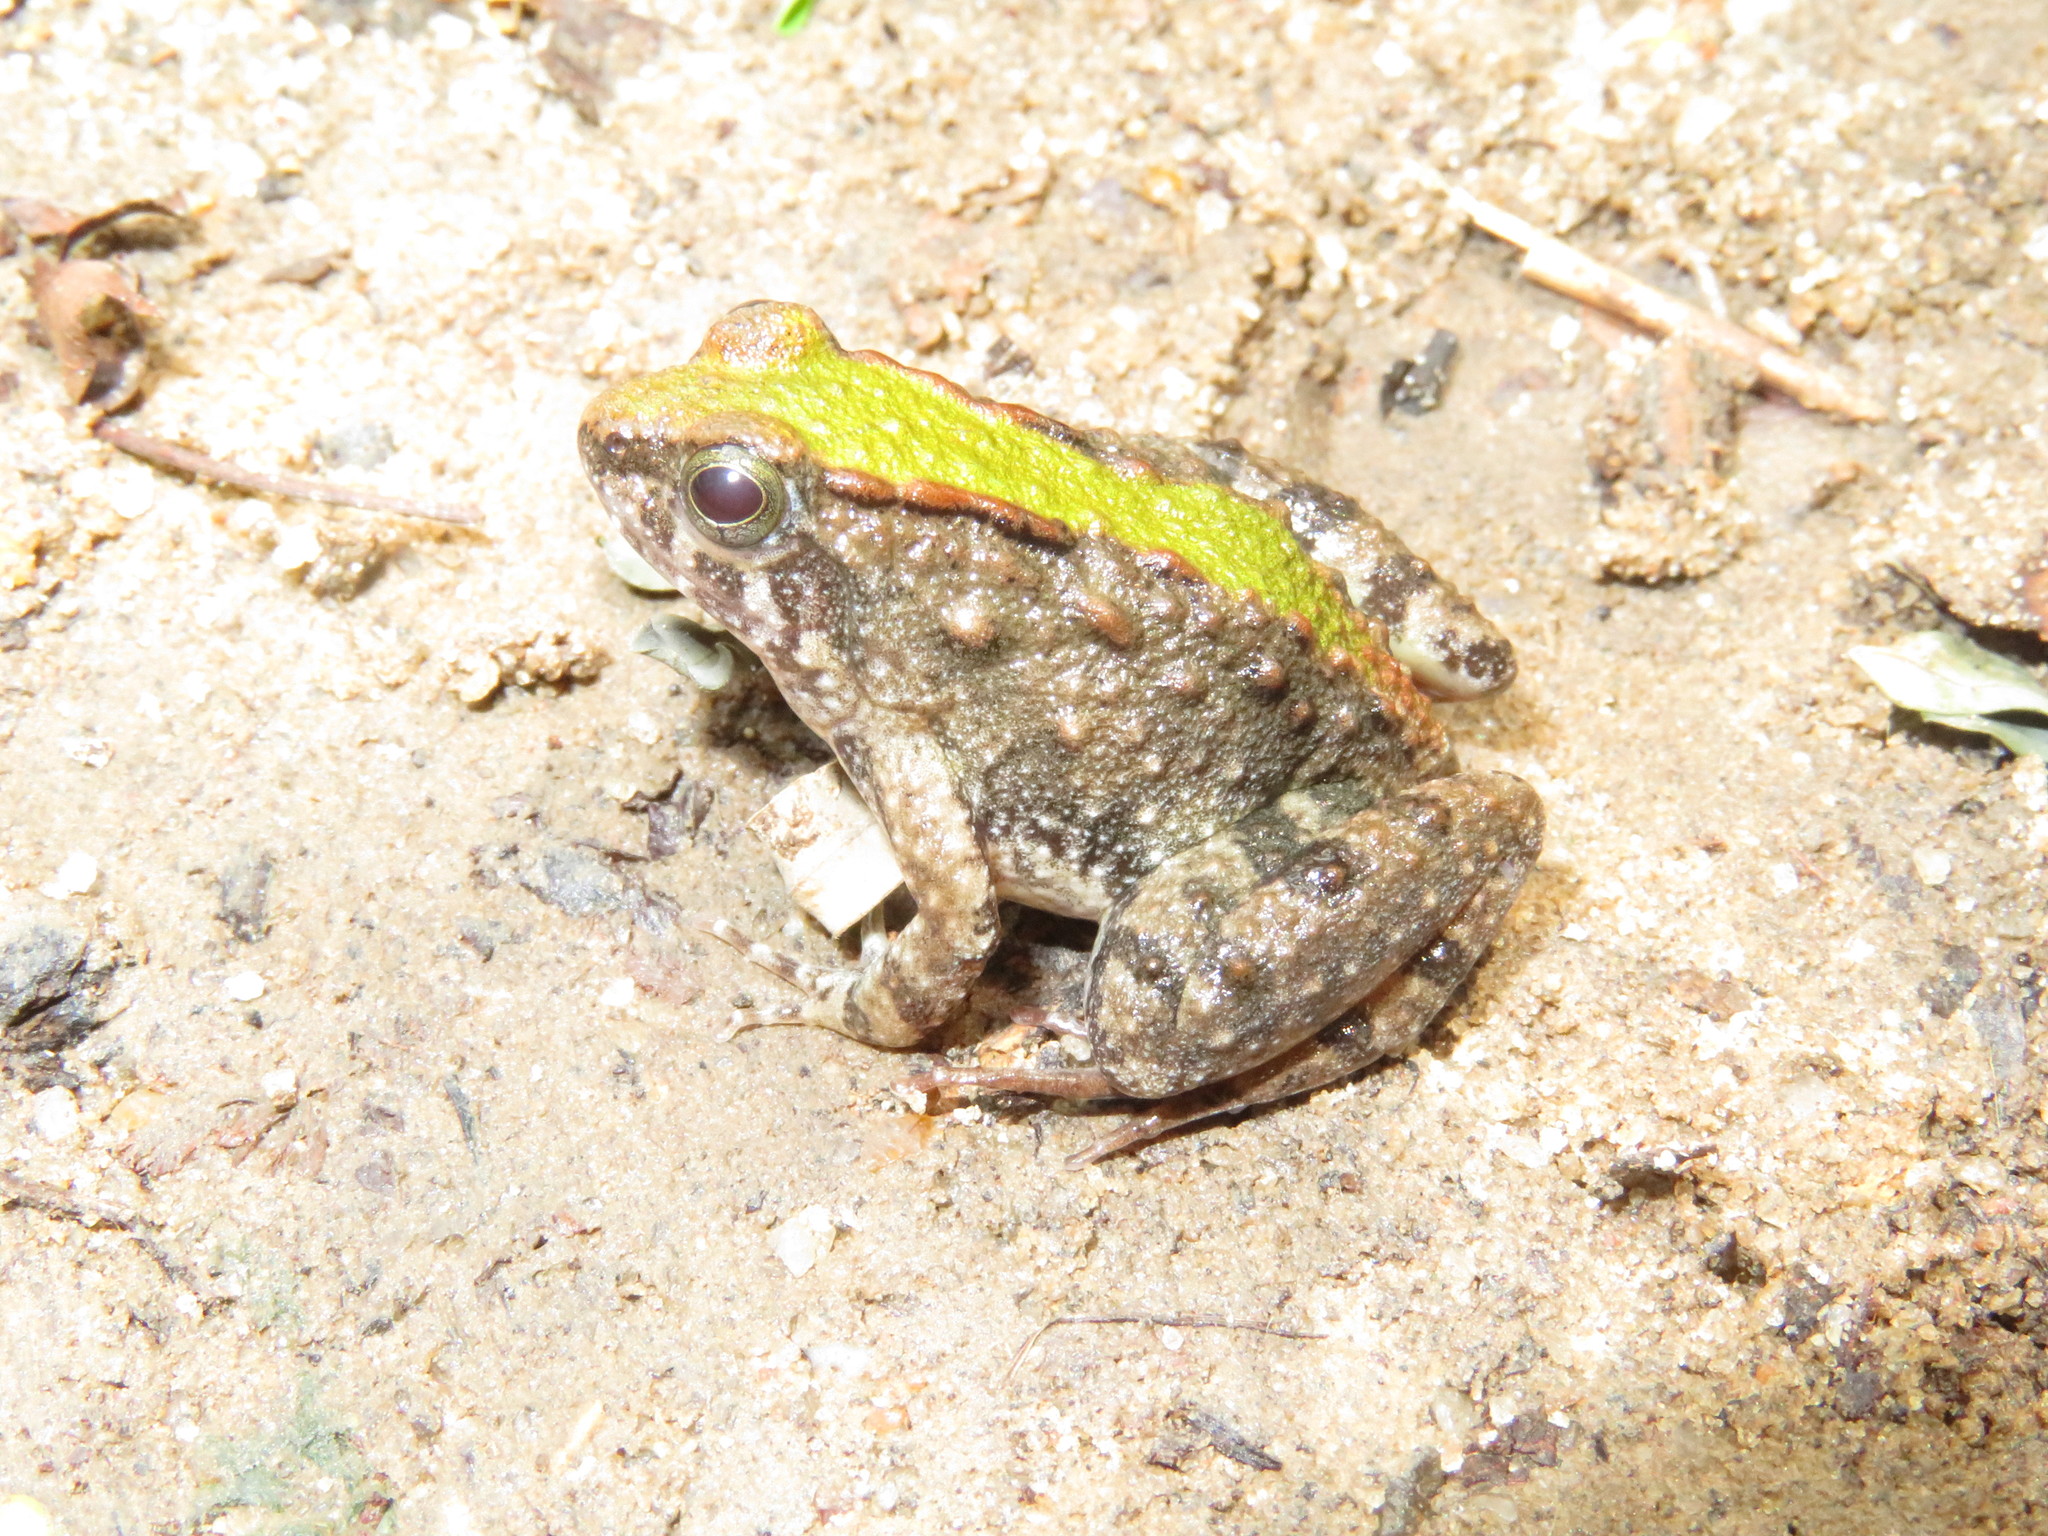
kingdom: Animalia
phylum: Chordata
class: Amphibia
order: Anura
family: Phrynobatrachidae
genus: Phrynobatrachus
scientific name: Phrynobatrachus acridoides
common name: East african puddle frog
